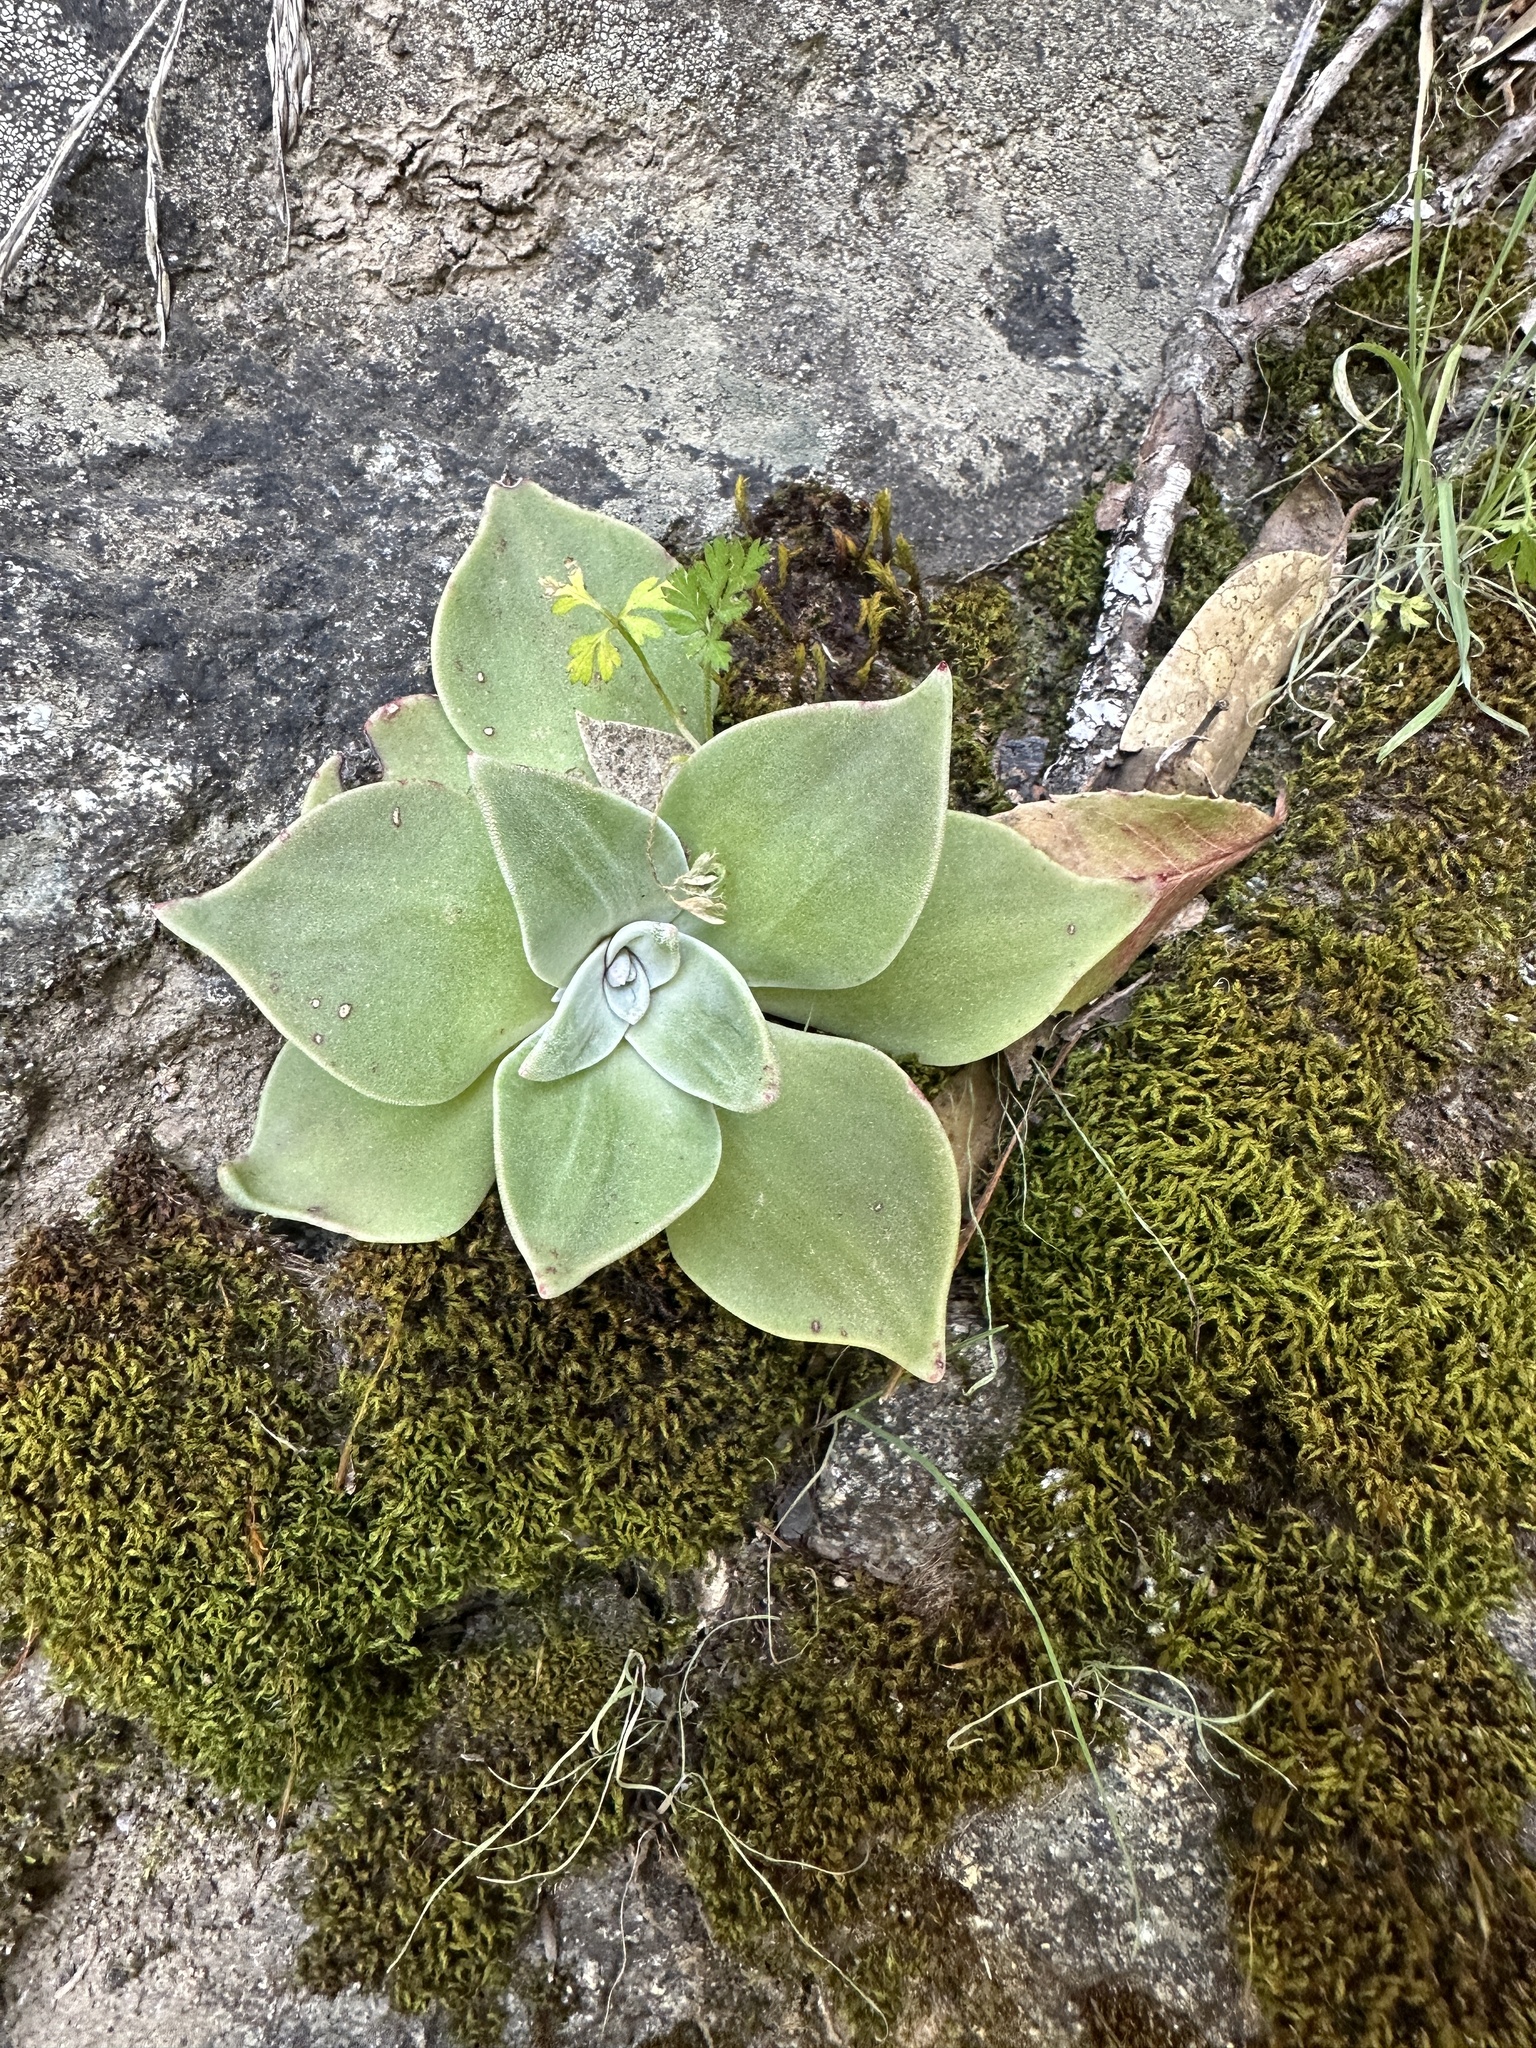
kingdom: Plantae
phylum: Tracheophyta
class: Magnoliopsida
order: Saxifragales
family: Crassulaceae
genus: Dudleya
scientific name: Dudleya cymosa
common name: Canyon dudleya
